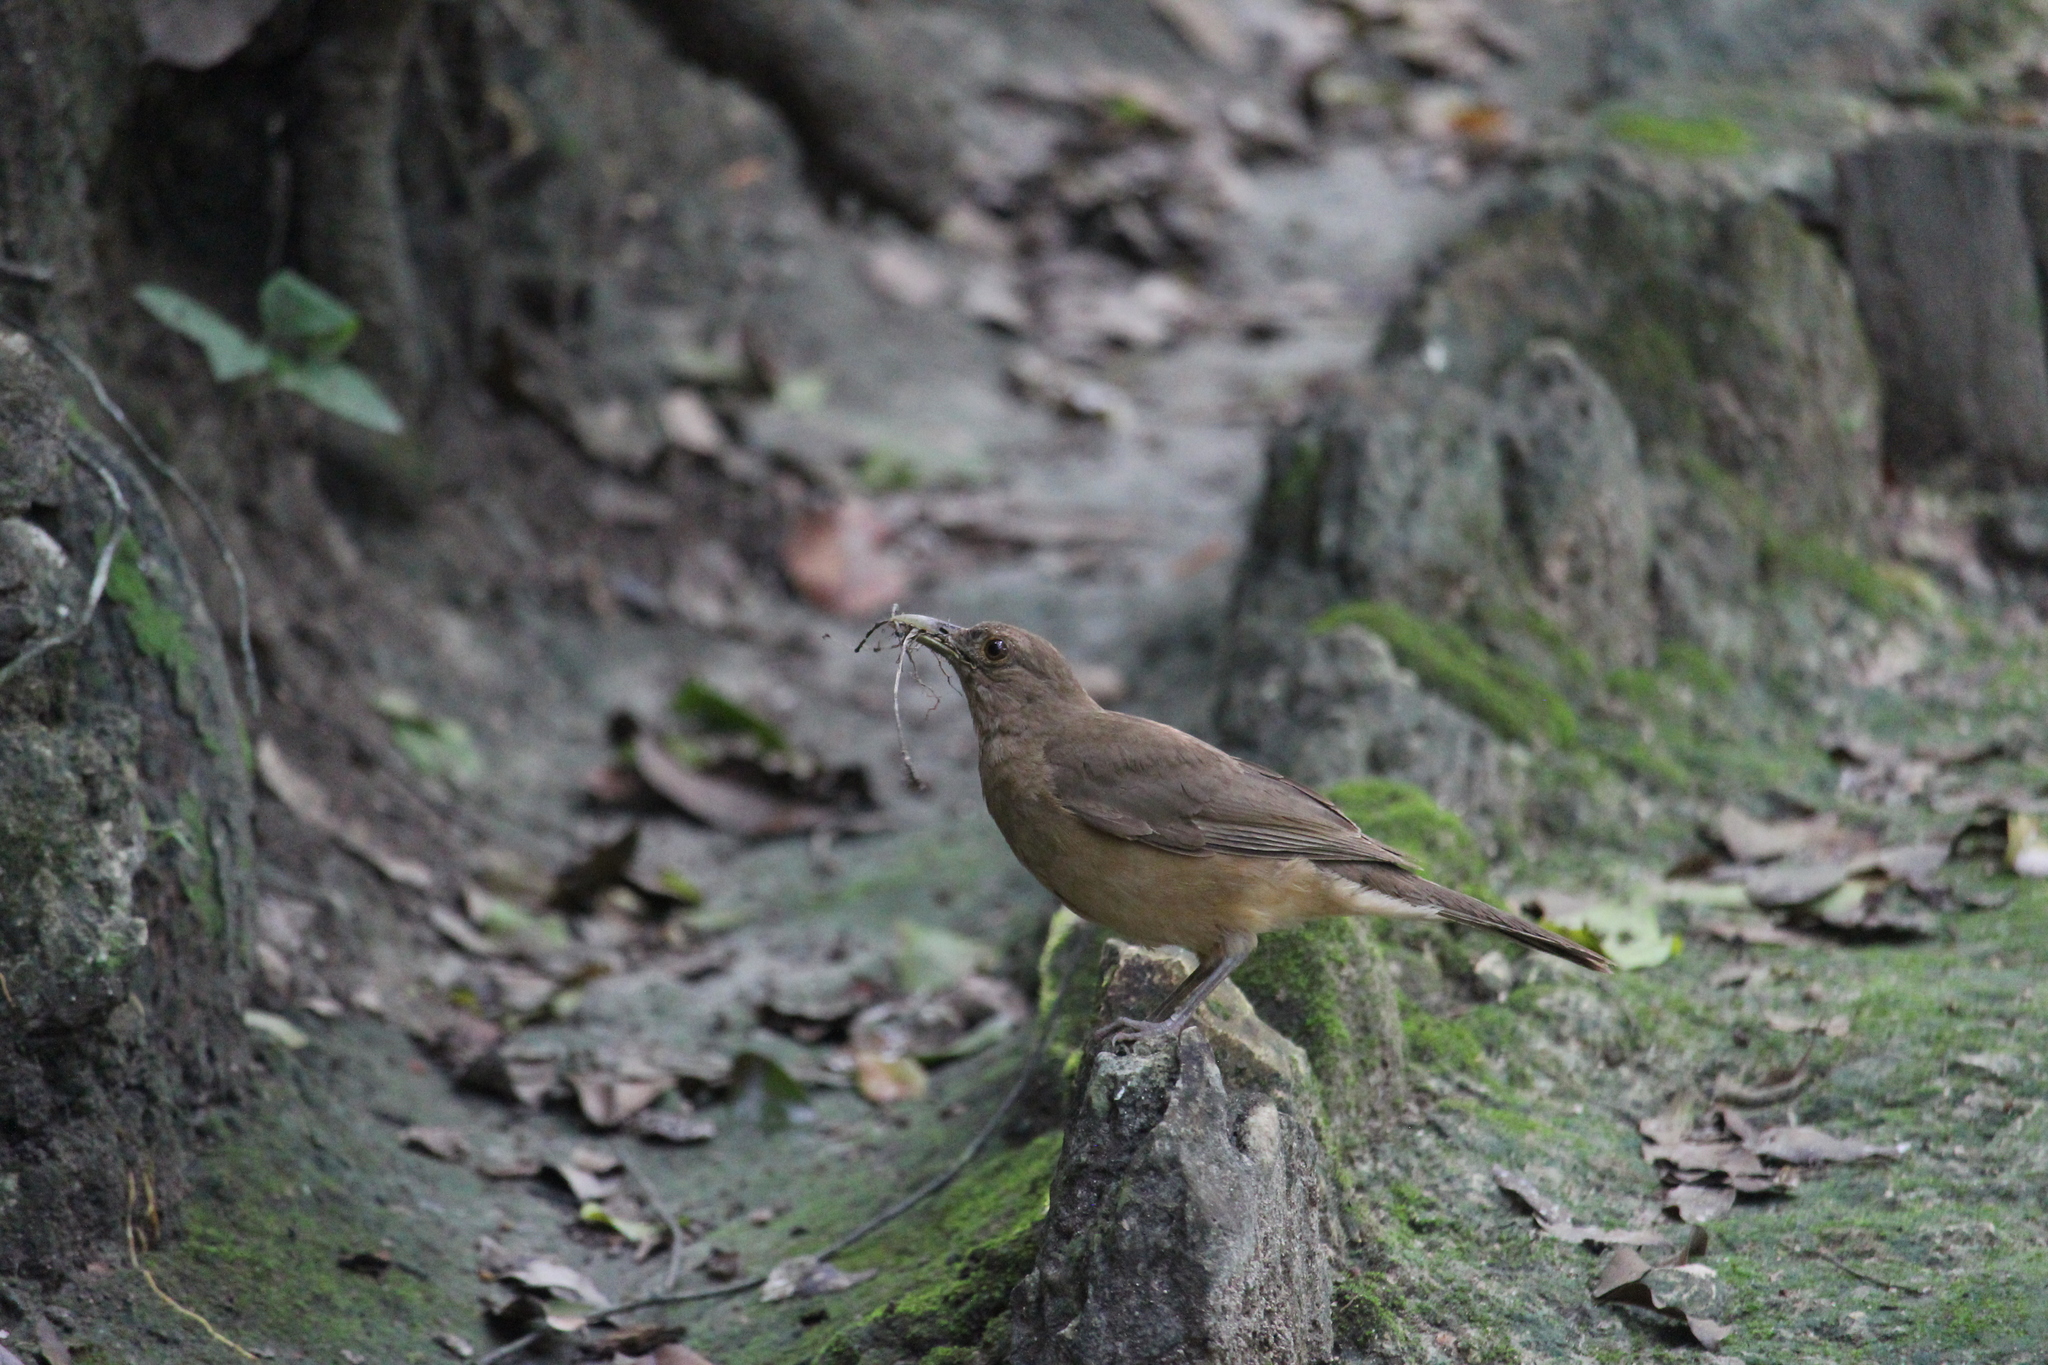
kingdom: Animalia
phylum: Chordata
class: Aves
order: Passeriformes
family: Turdidae
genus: Turdus
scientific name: Turdus grayi
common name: Clay-colored thrush
